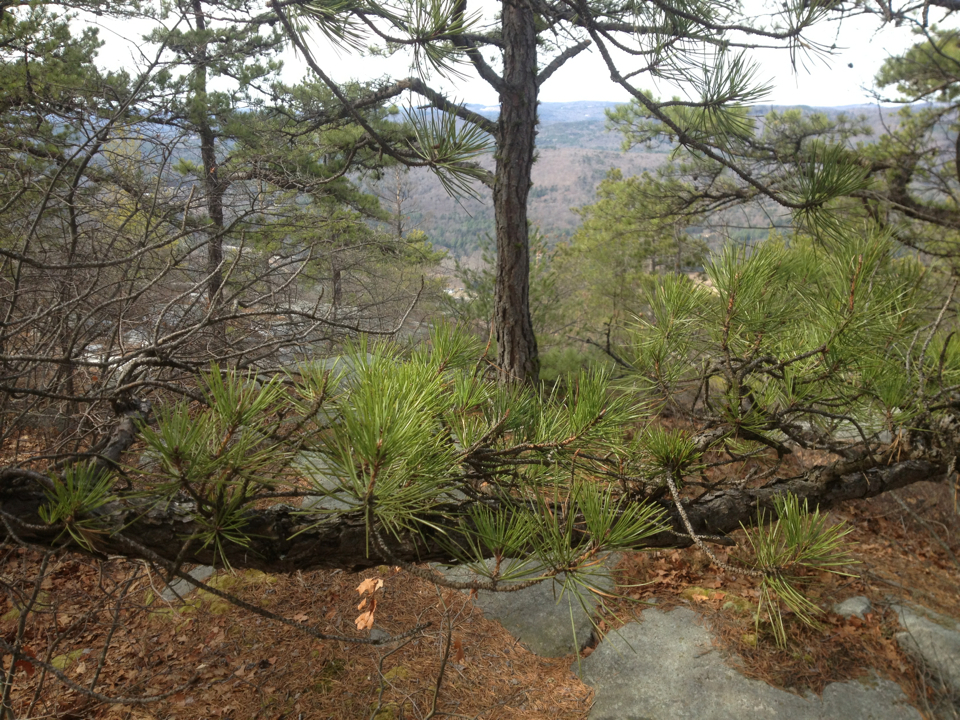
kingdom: Plantae
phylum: Tracheophyta
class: Pinopsida
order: Pinales
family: Pinaceae
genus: Pinus
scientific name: Pinus rigida
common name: Pitch pine
